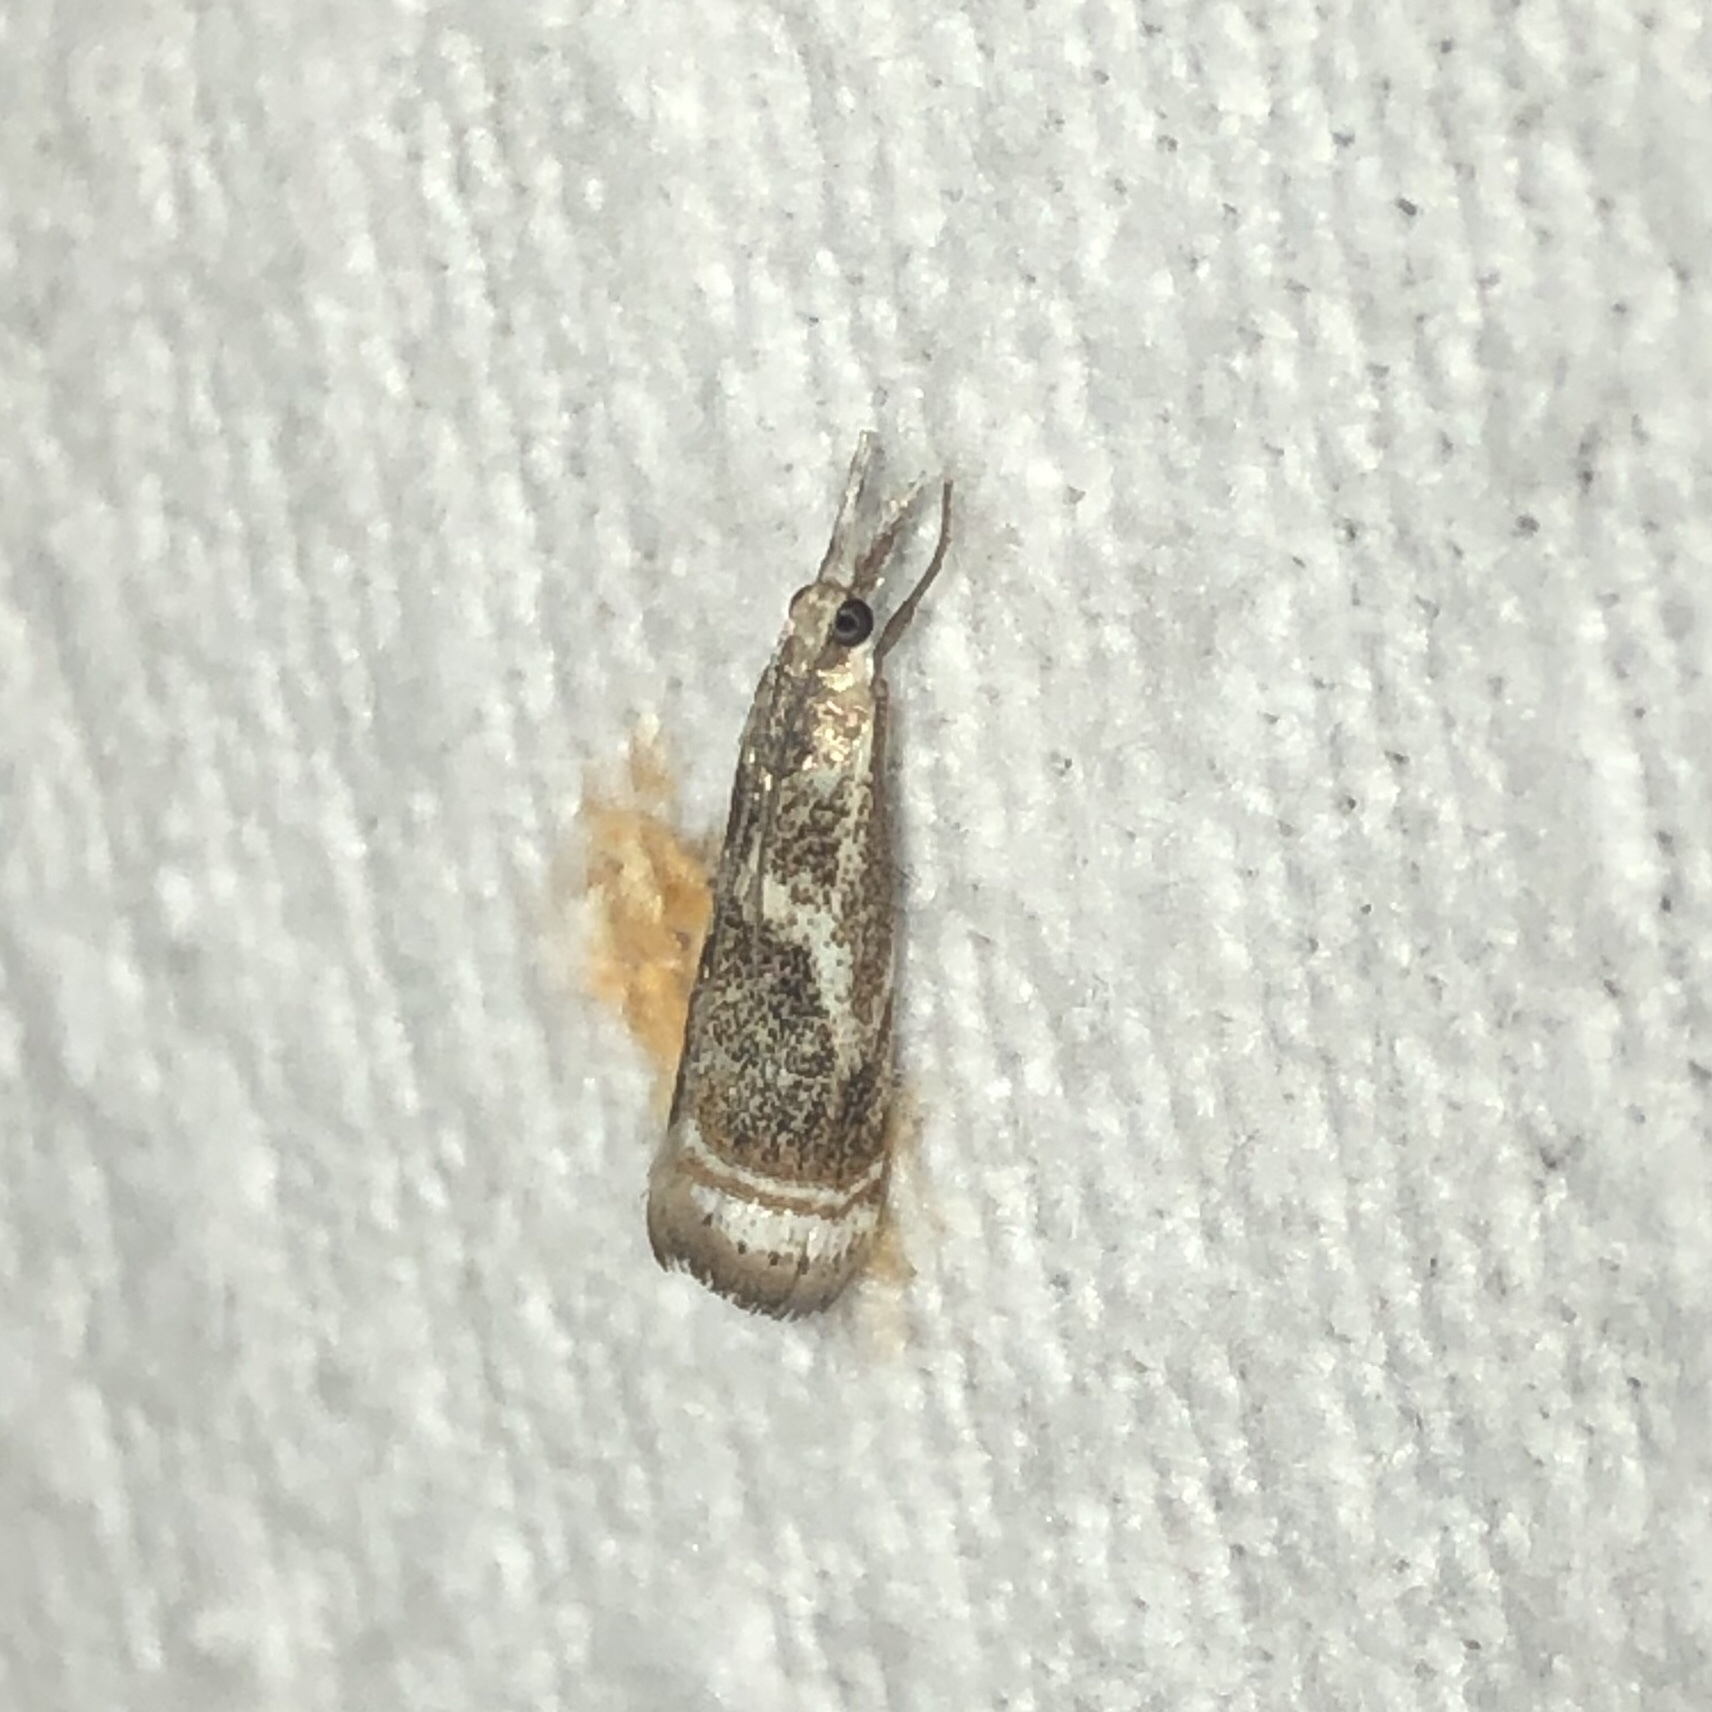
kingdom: Animalia
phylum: Arthropoda
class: Insecta
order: Lepidoptera
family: Crambidae
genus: Microcrambus
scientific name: Microcrambus elegans
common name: Elegant grass-veneer
